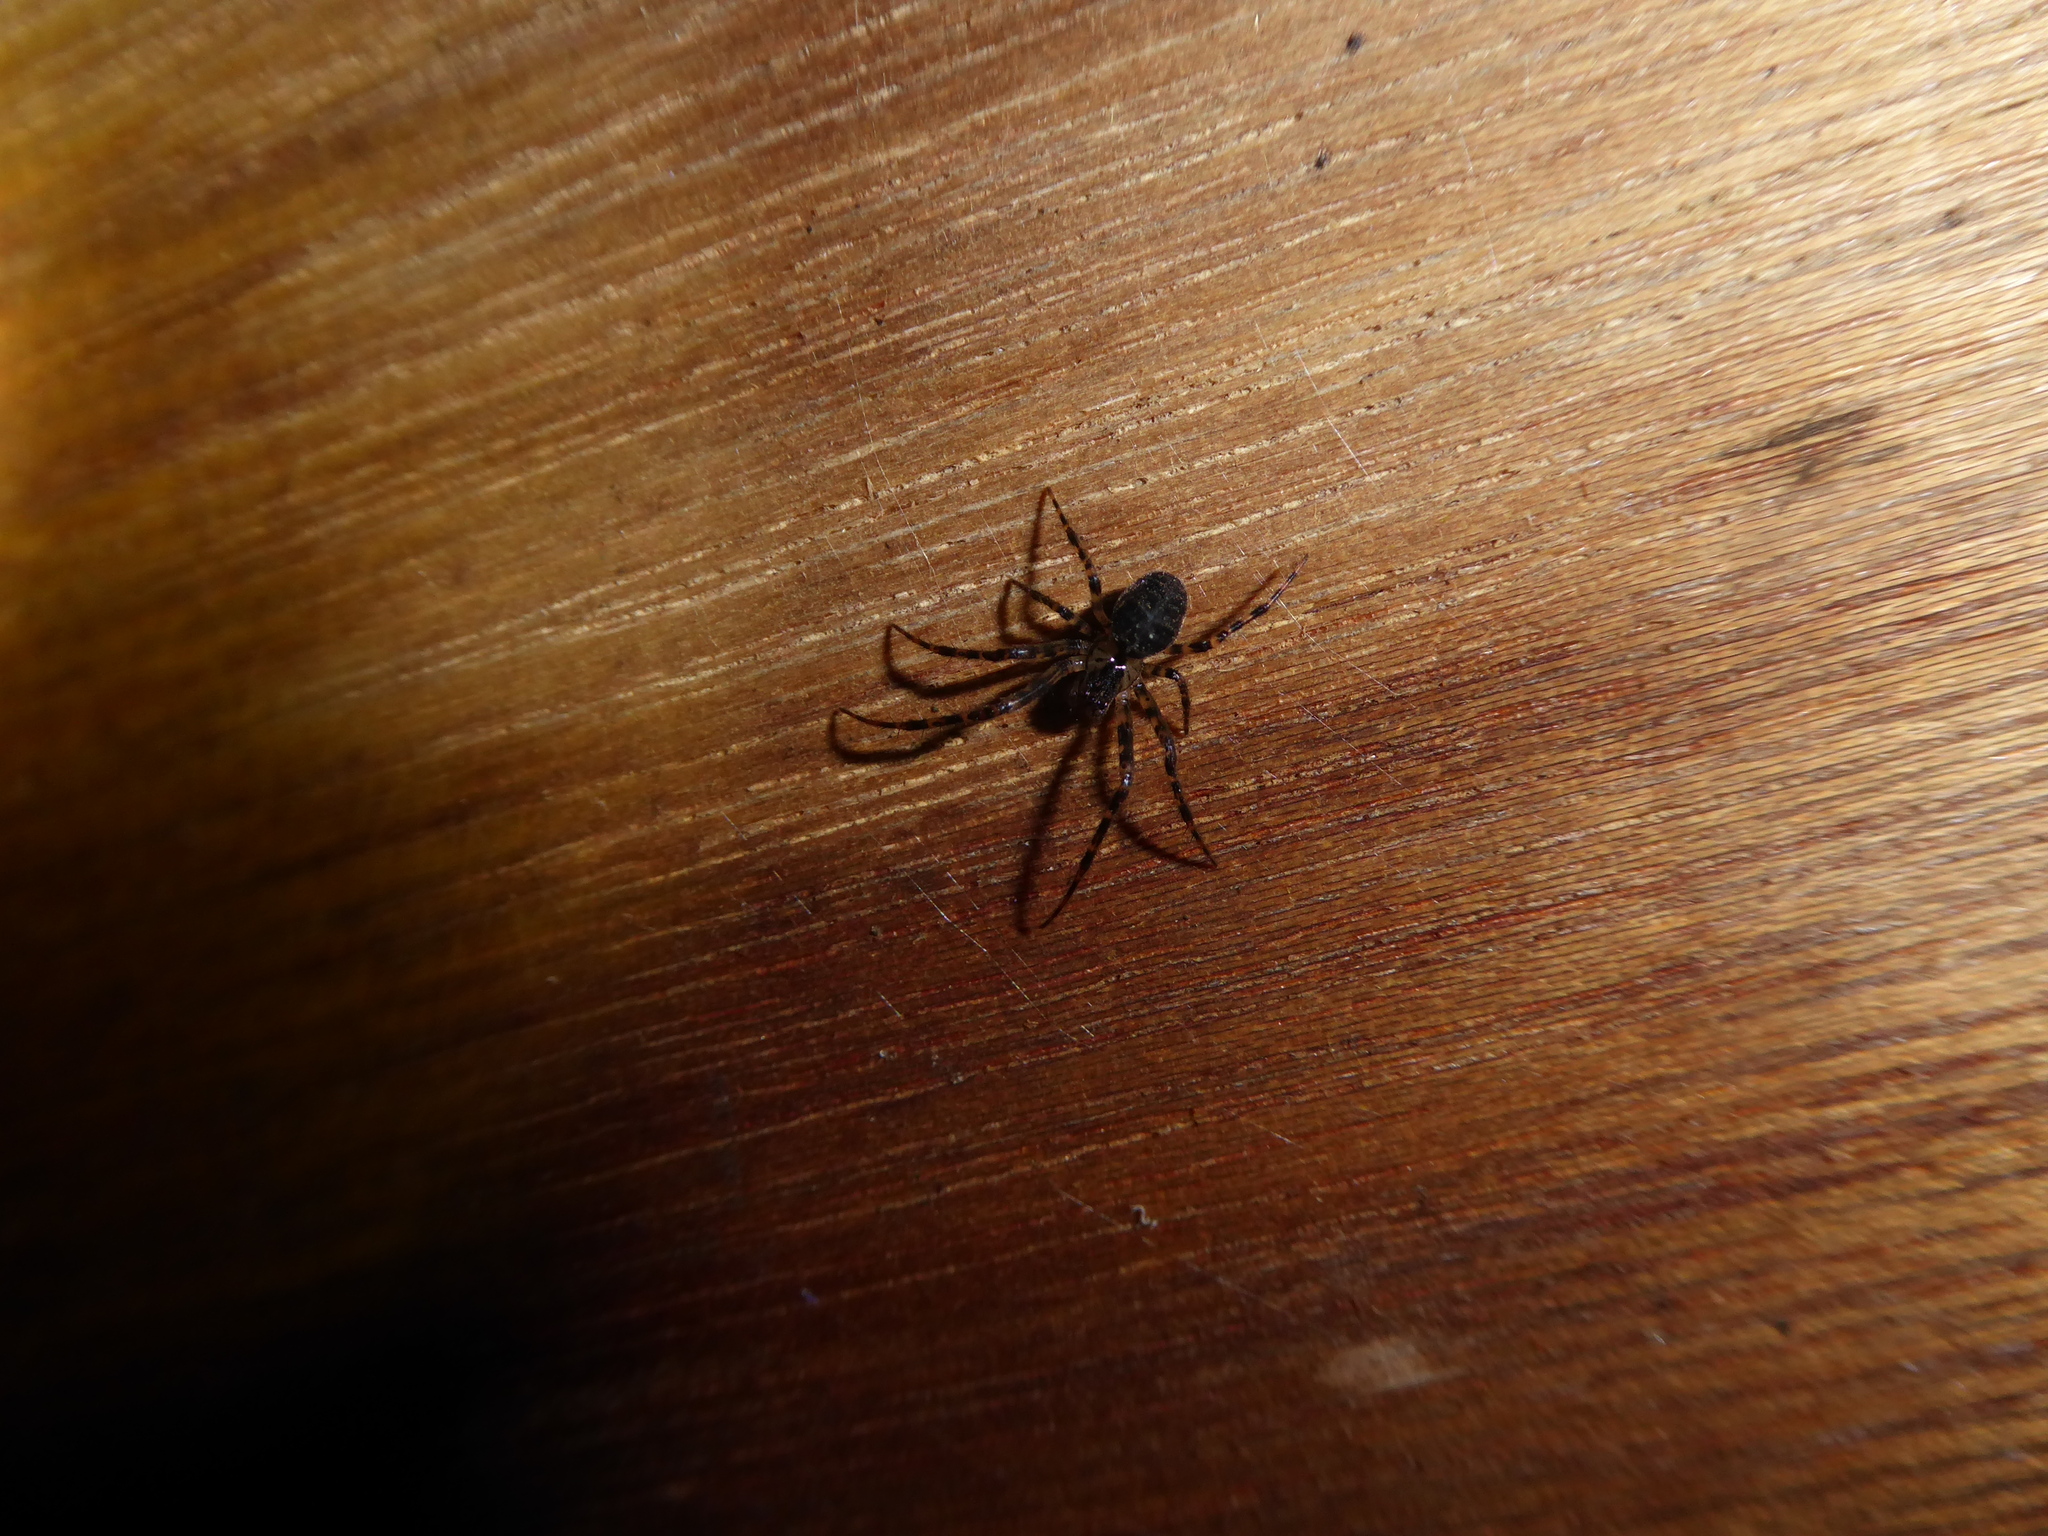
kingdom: Animalia
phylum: Arthropoda
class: Arachnida
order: Araneae
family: Tetragnathidae
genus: Metellina
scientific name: Metellina merianae
